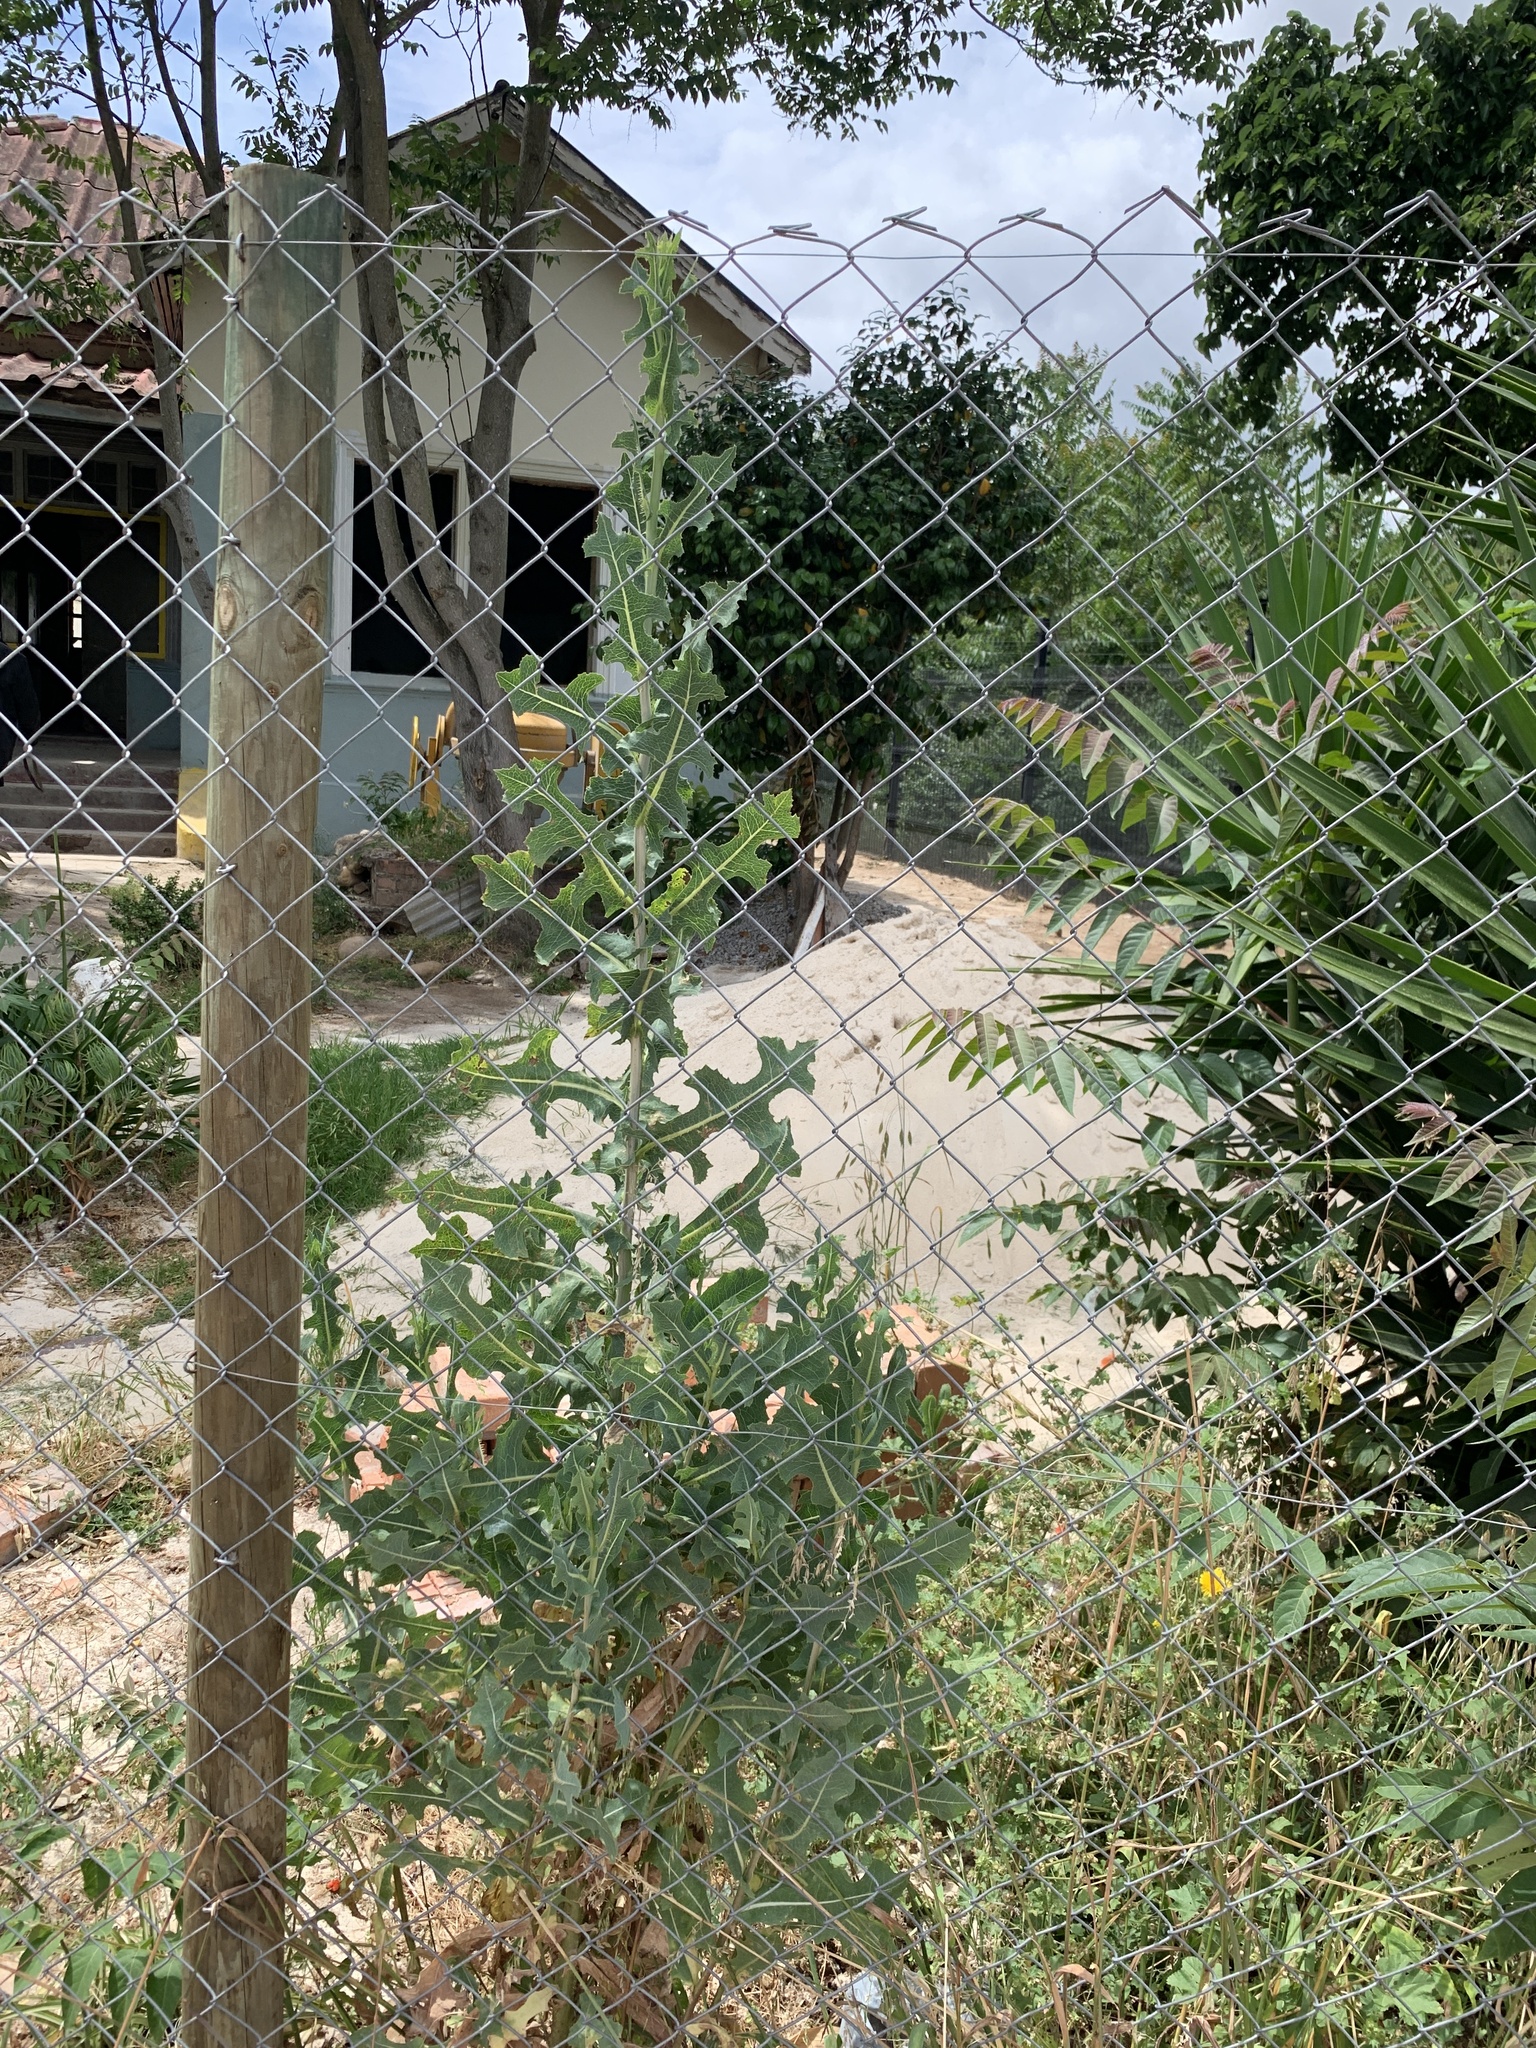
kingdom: Plantae
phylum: Tracheophyta
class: Magnoliopsida
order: Asterales
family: Asteraceae
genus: Lactuca
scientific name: Lactuca serriola
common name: Prickly lettuce
